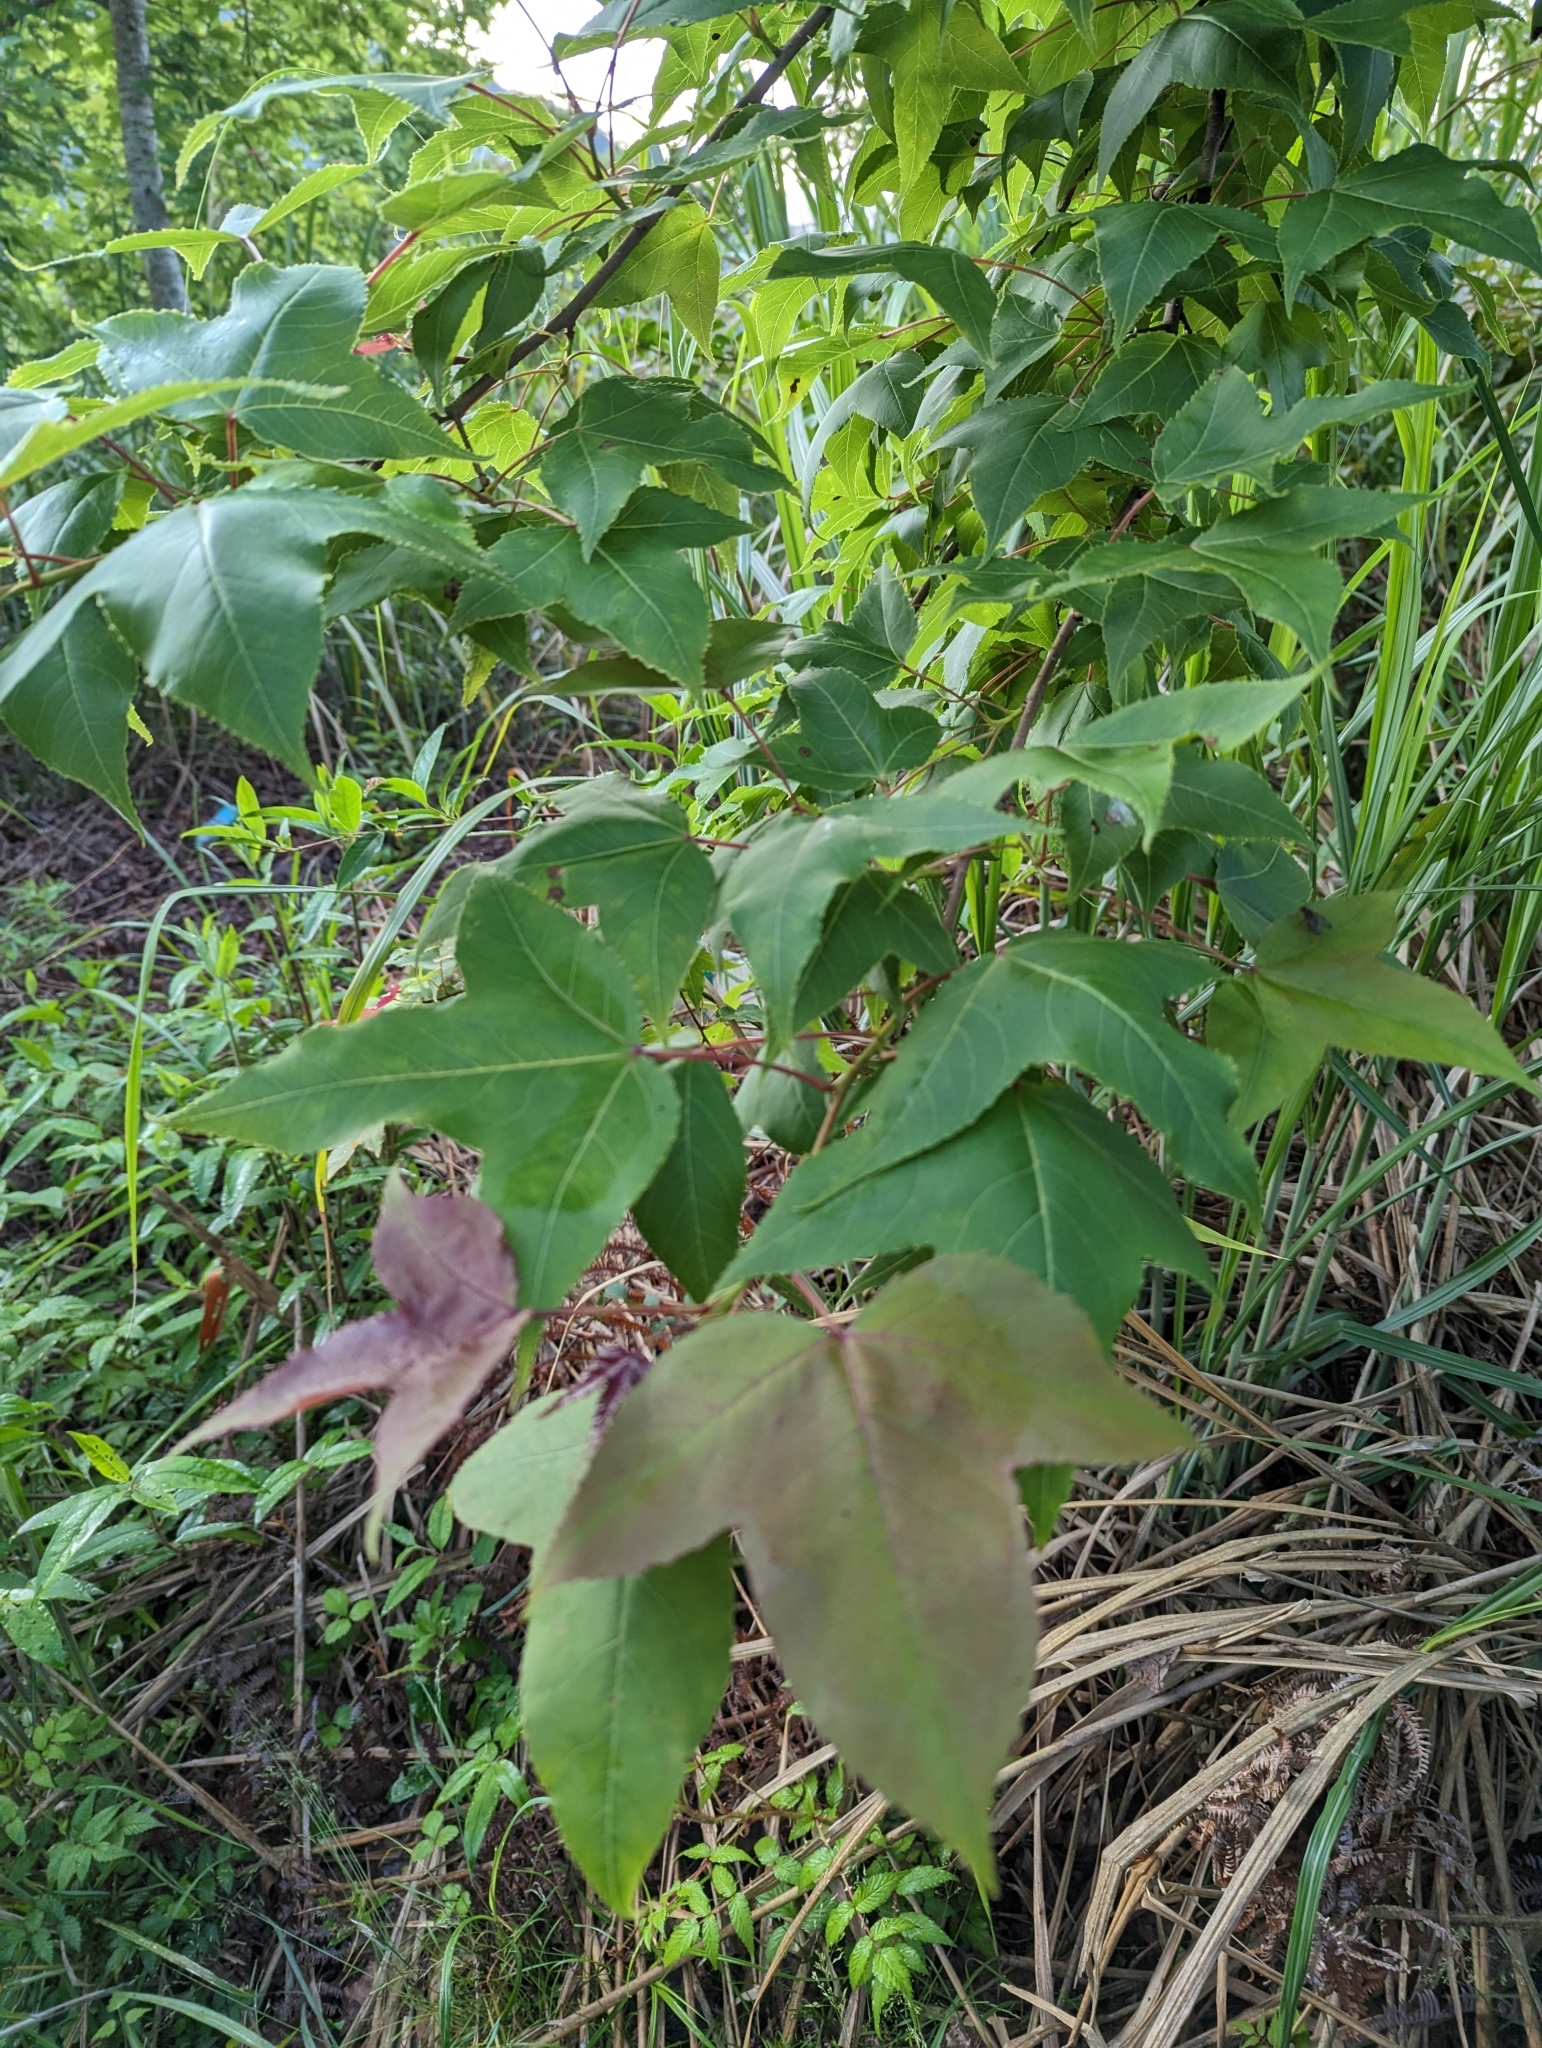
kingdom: Plantae
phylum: Tracheophyta
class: Magnoliopsida
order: Saxifragales
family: Altingiaceae
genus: Liquidambar
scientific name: Liquidambar formosana
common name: Chinese sweet gum
